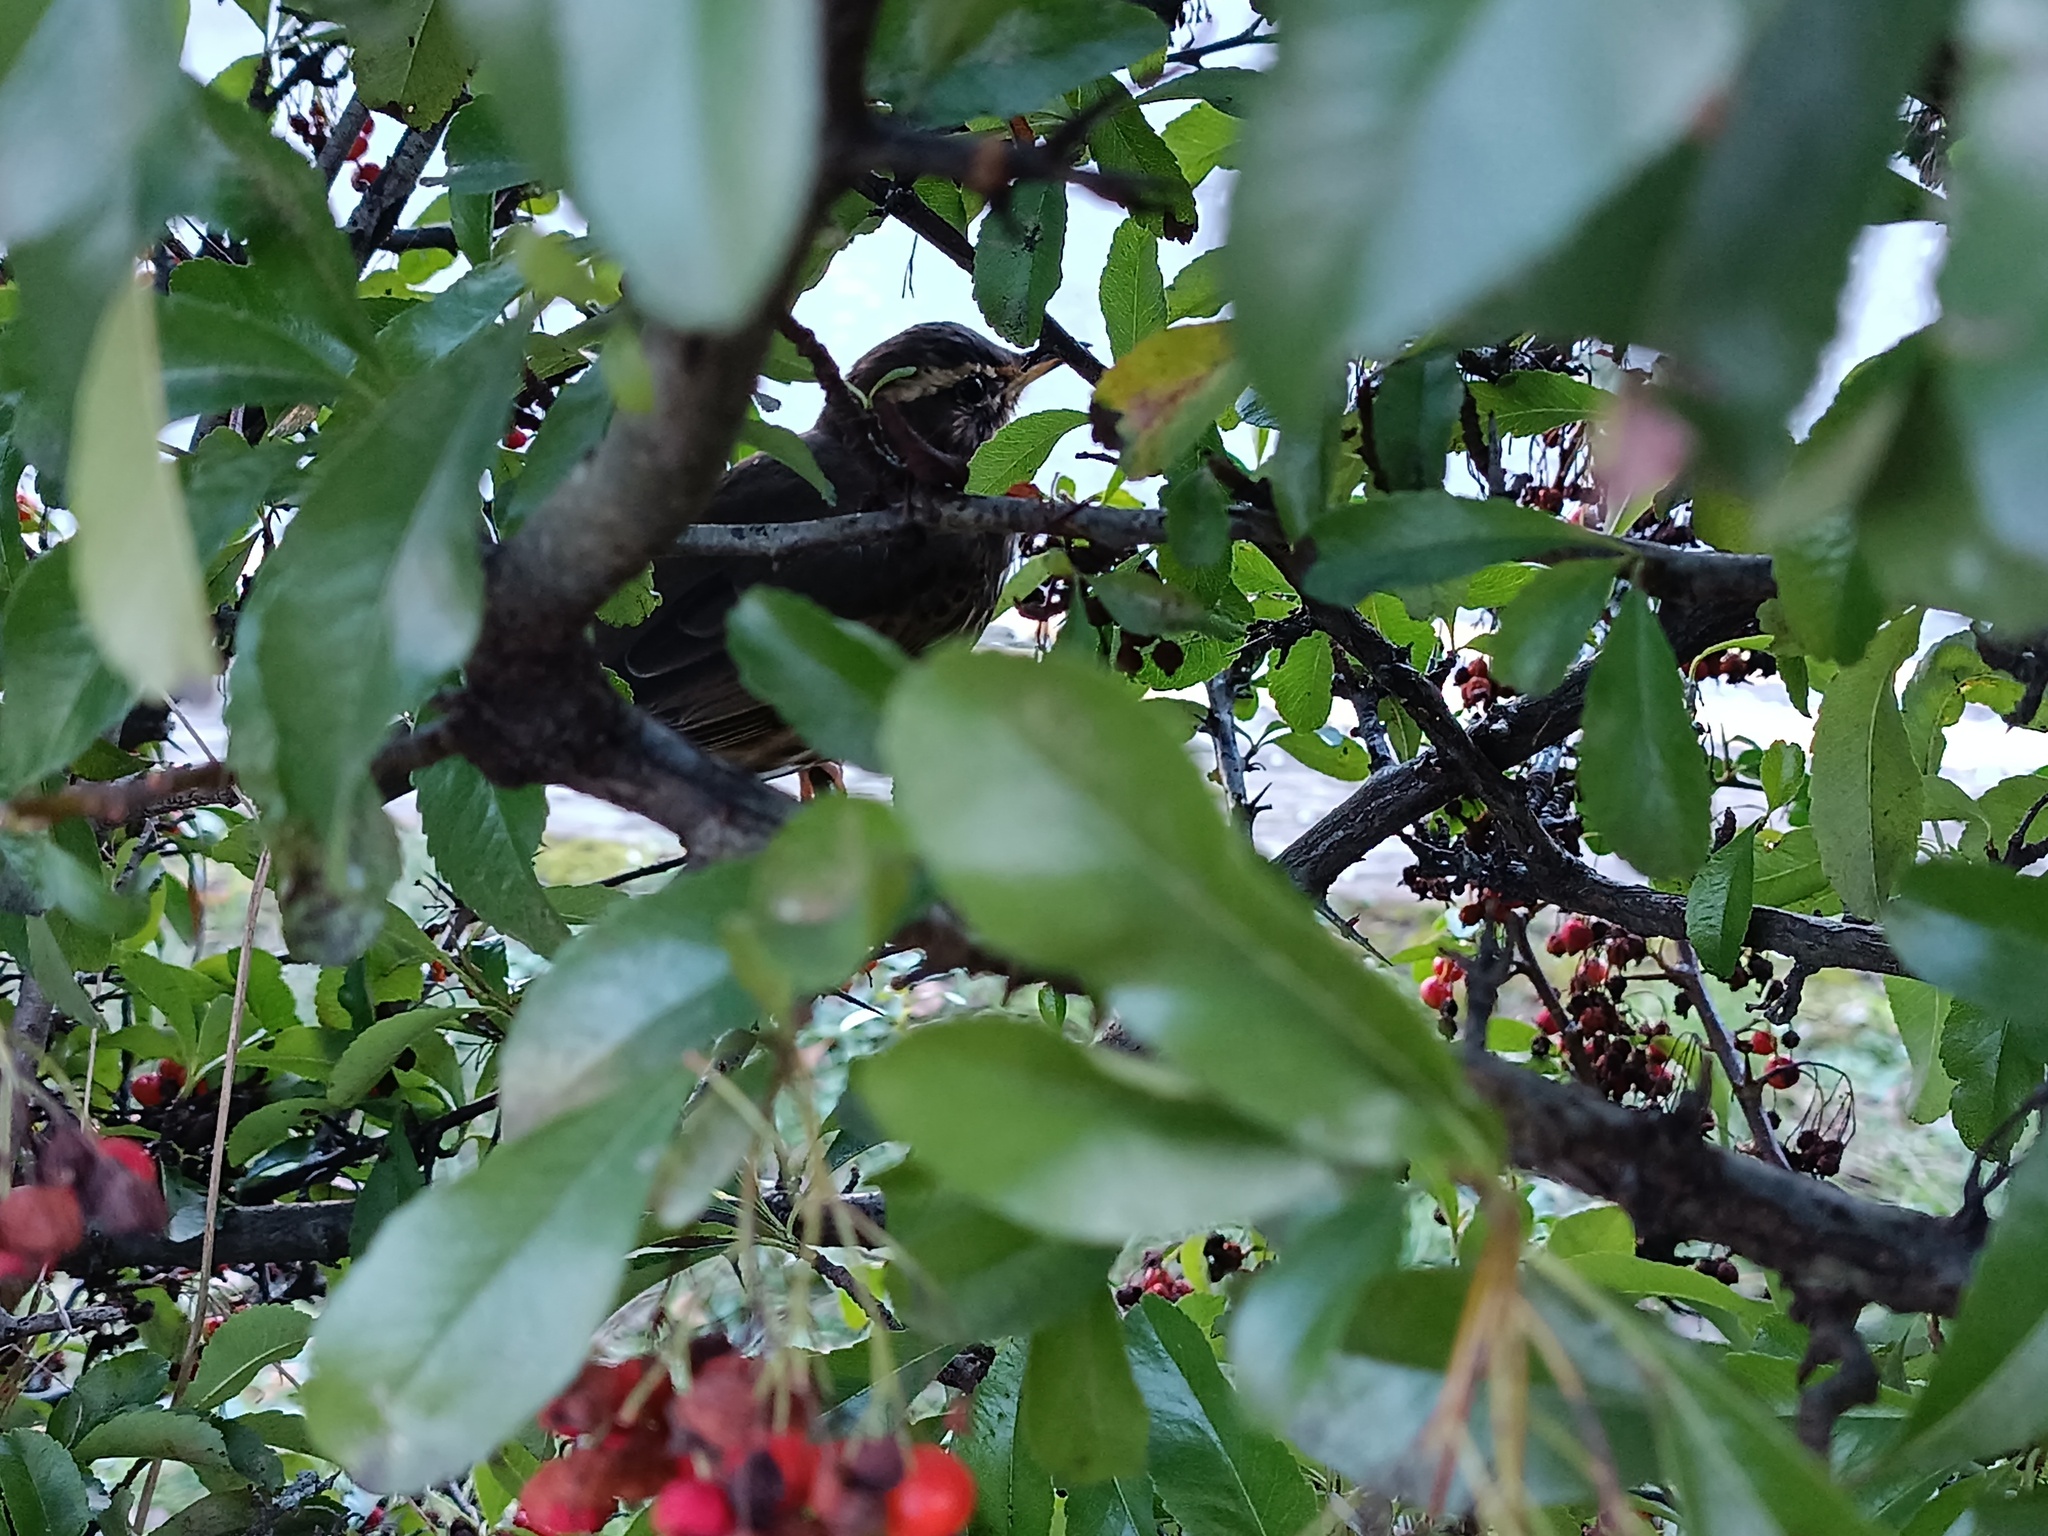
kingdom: Animalia
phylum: Chordata
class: Aves
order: Passeriformes
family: Turdidae
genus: Turdus
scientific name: Turdus iliacus
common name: Redwing
